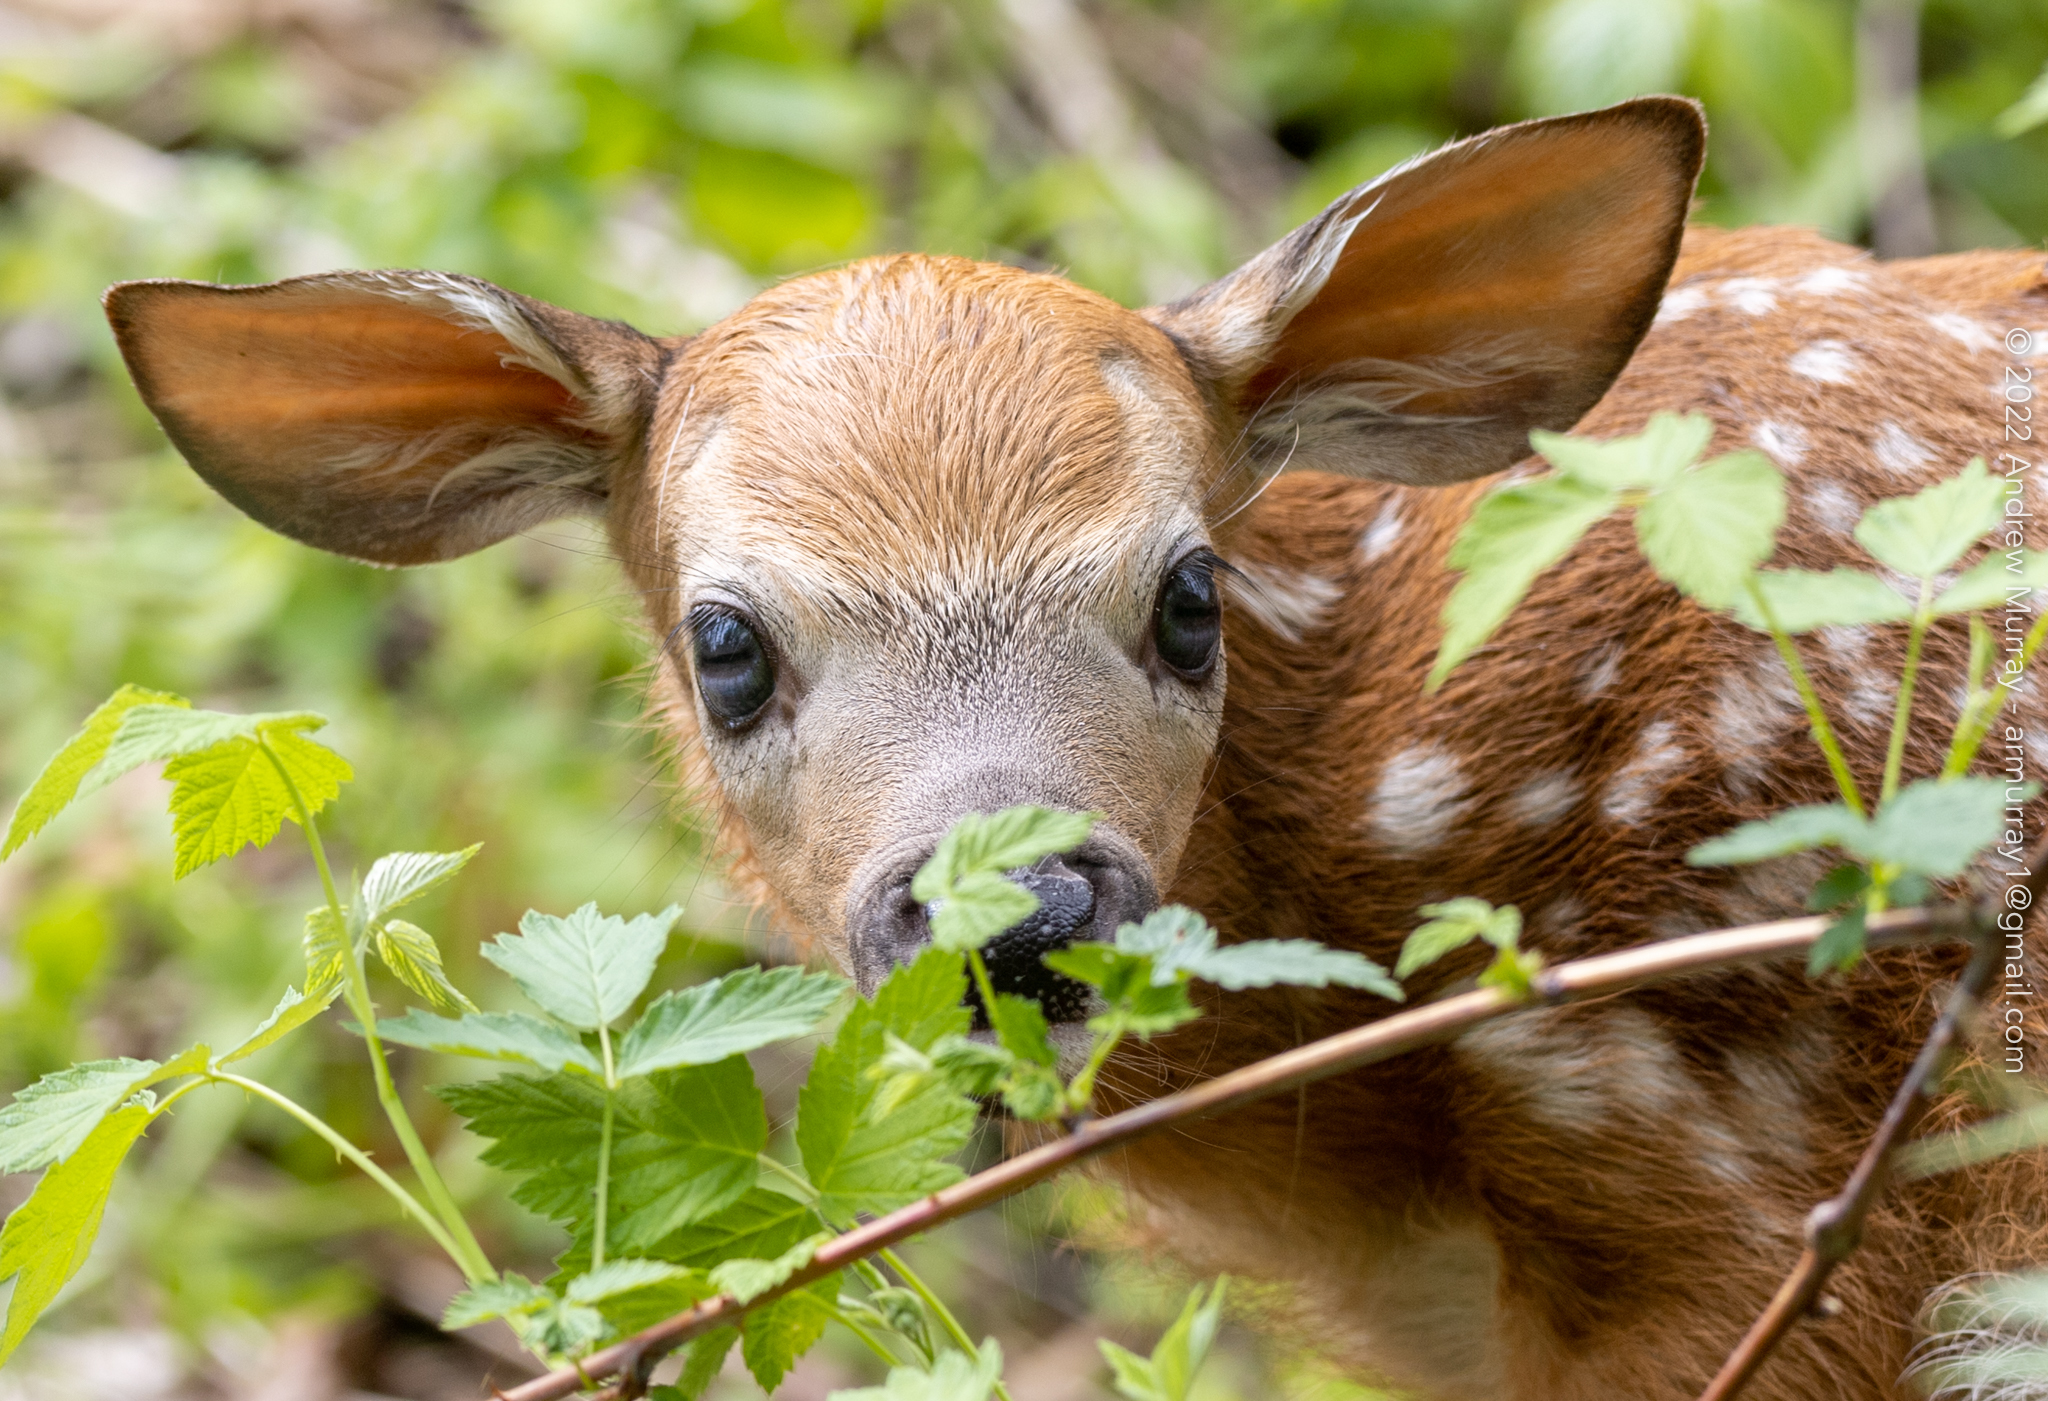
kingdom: Animalia
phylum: Chordata
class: Mammalia
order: Artiodactyla
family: Cervidae
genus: Odocoileus
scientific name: Odocoileus virginianus
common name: White-tailed deer
